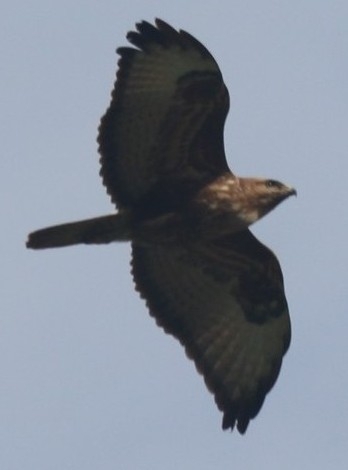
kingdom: Animalia
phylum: Chordata
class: Aves
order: Accipitriformes
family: Accipitridae
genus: Buteo
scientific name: Buteo buteo
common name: Common buzzard
